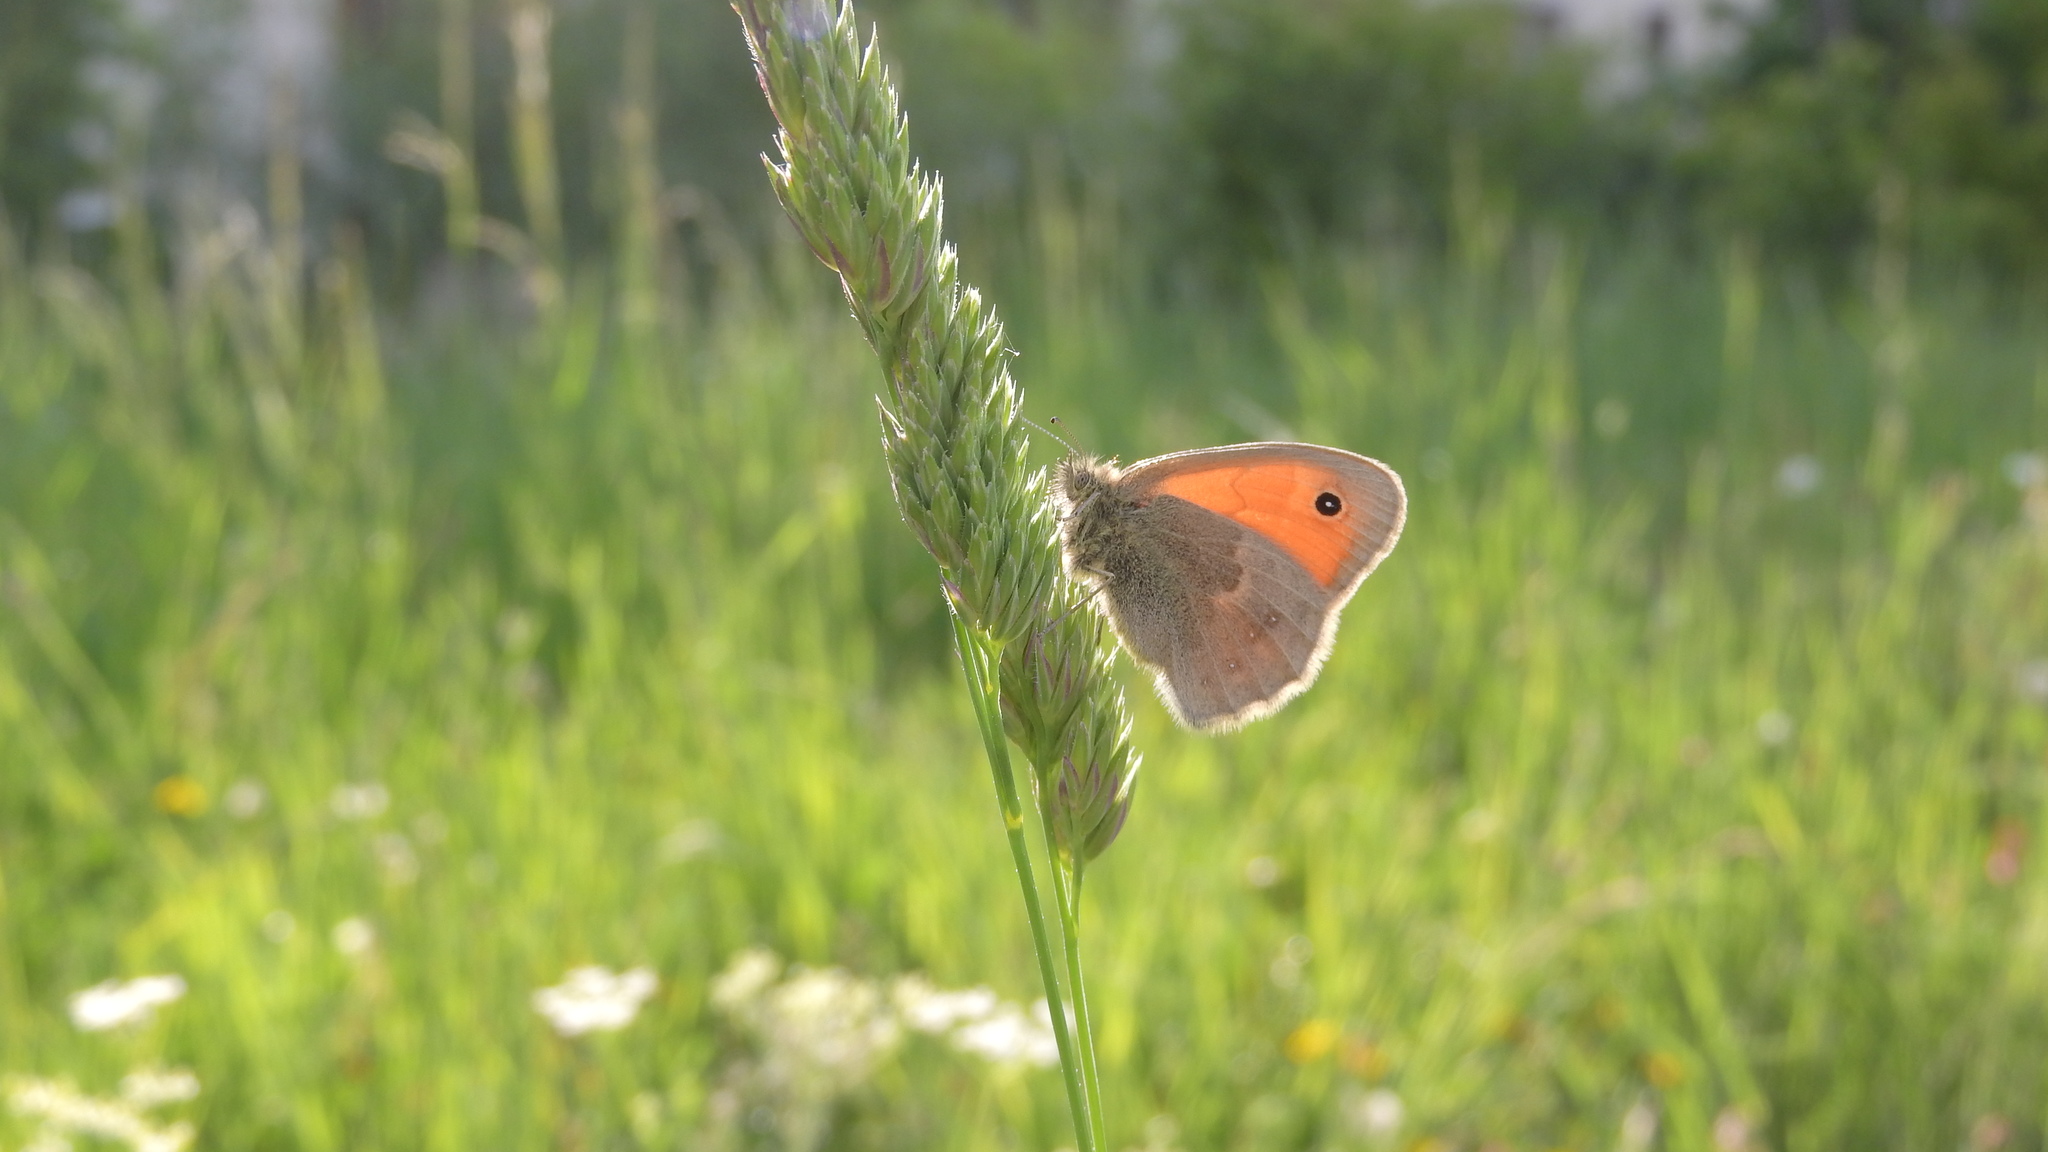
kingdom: Animalia
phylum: Arthropoda
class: Insecta
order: Lepidoptera
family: Nymphalidae
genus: Coenonympha
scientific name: Coenonympha pamphilus
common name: Small heath
